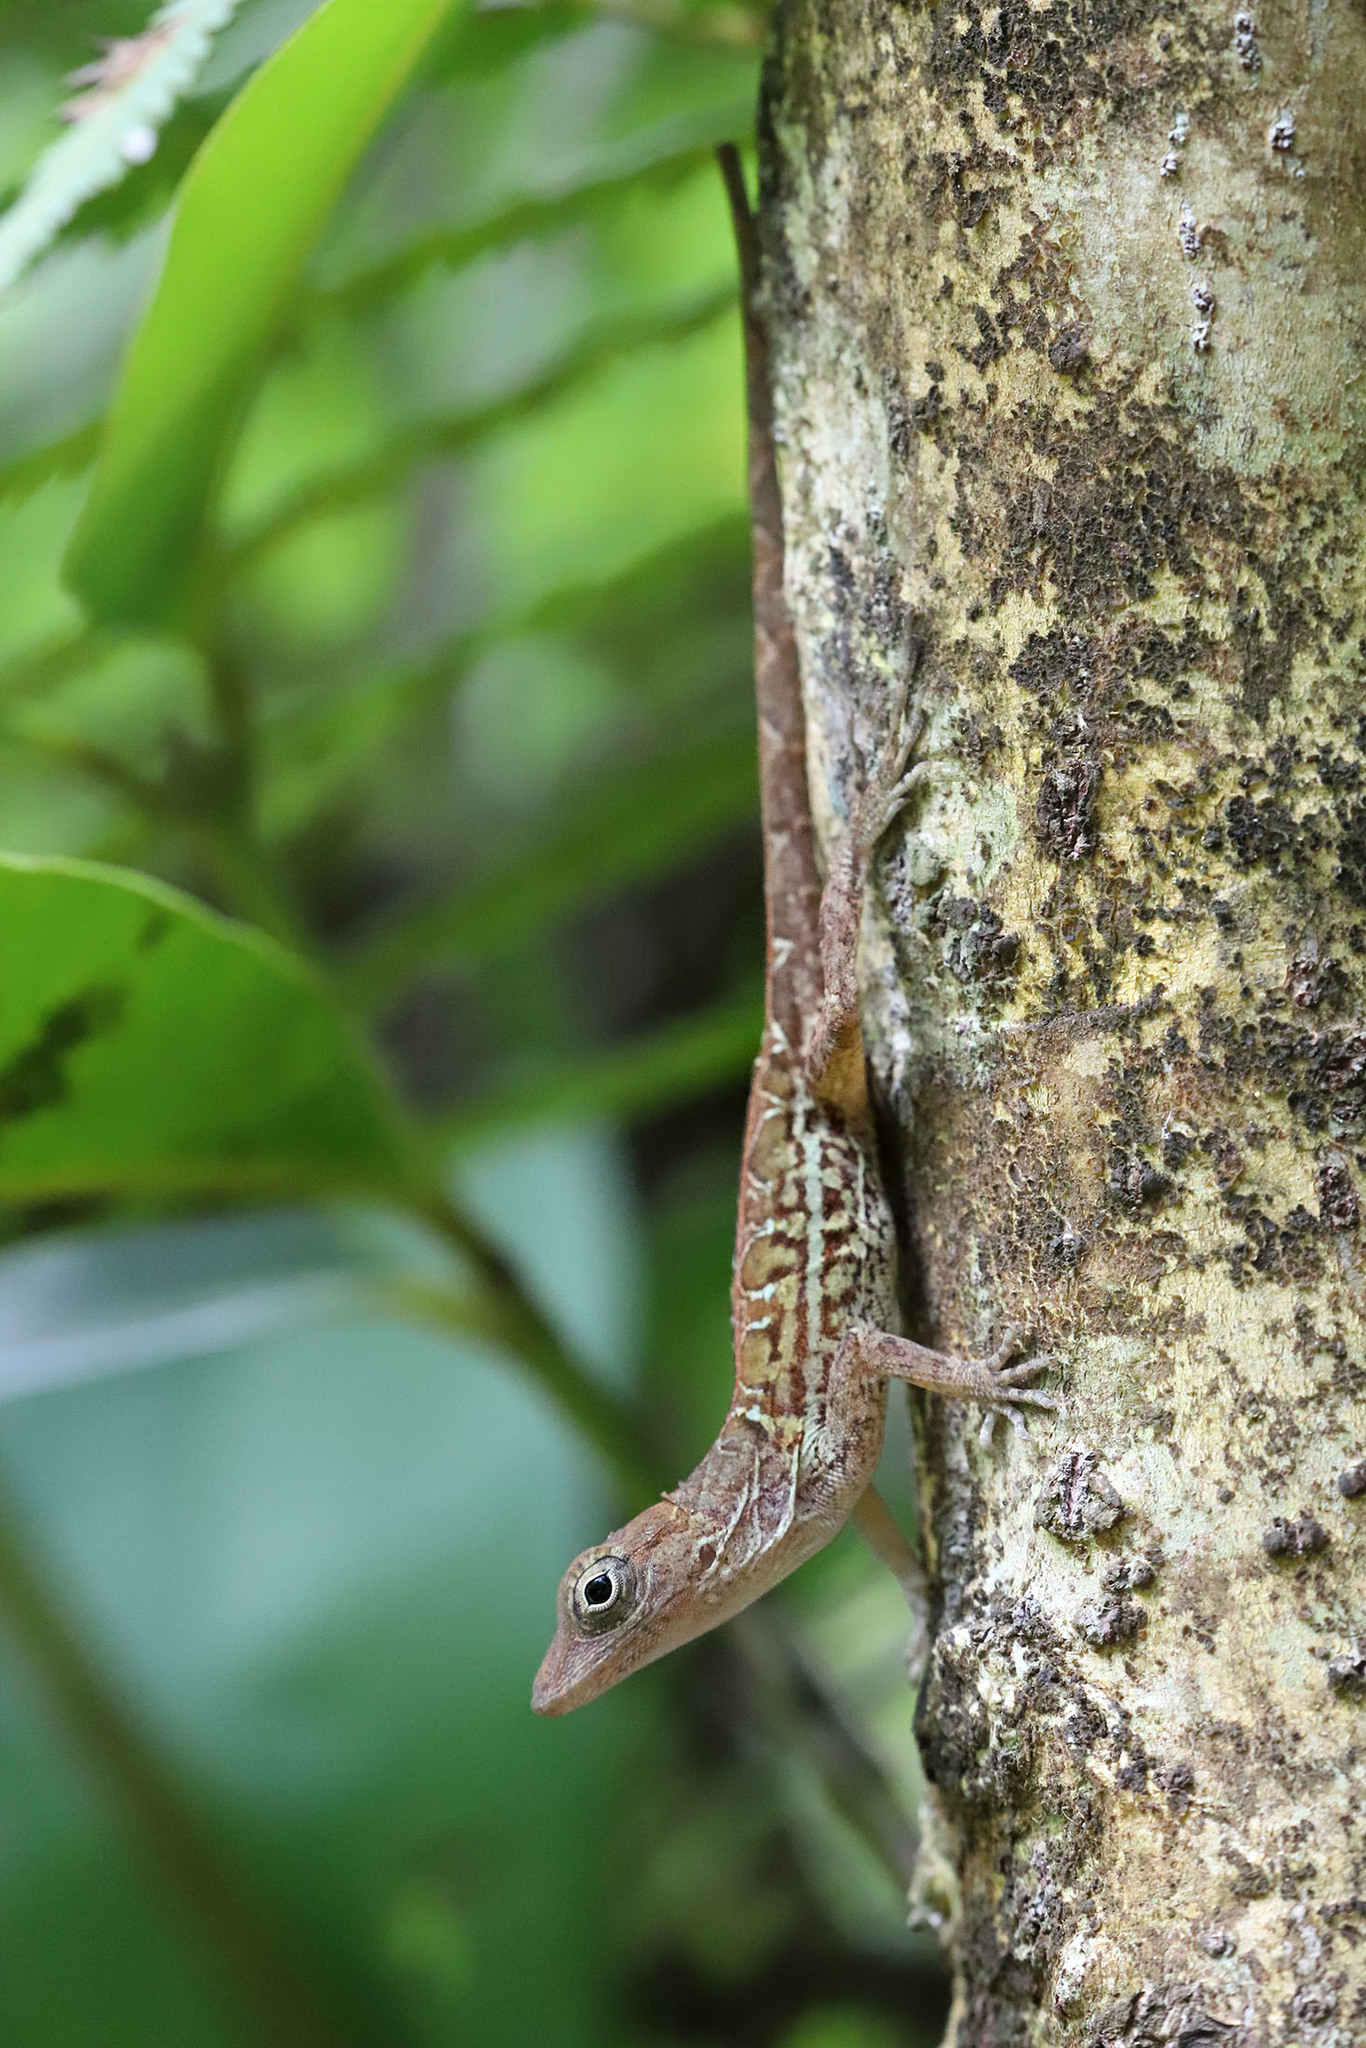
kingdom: Animalia
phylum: Chordata
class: Squamata
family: Dactyloidae
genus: Anolis
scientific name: Anolis hispaniolae
